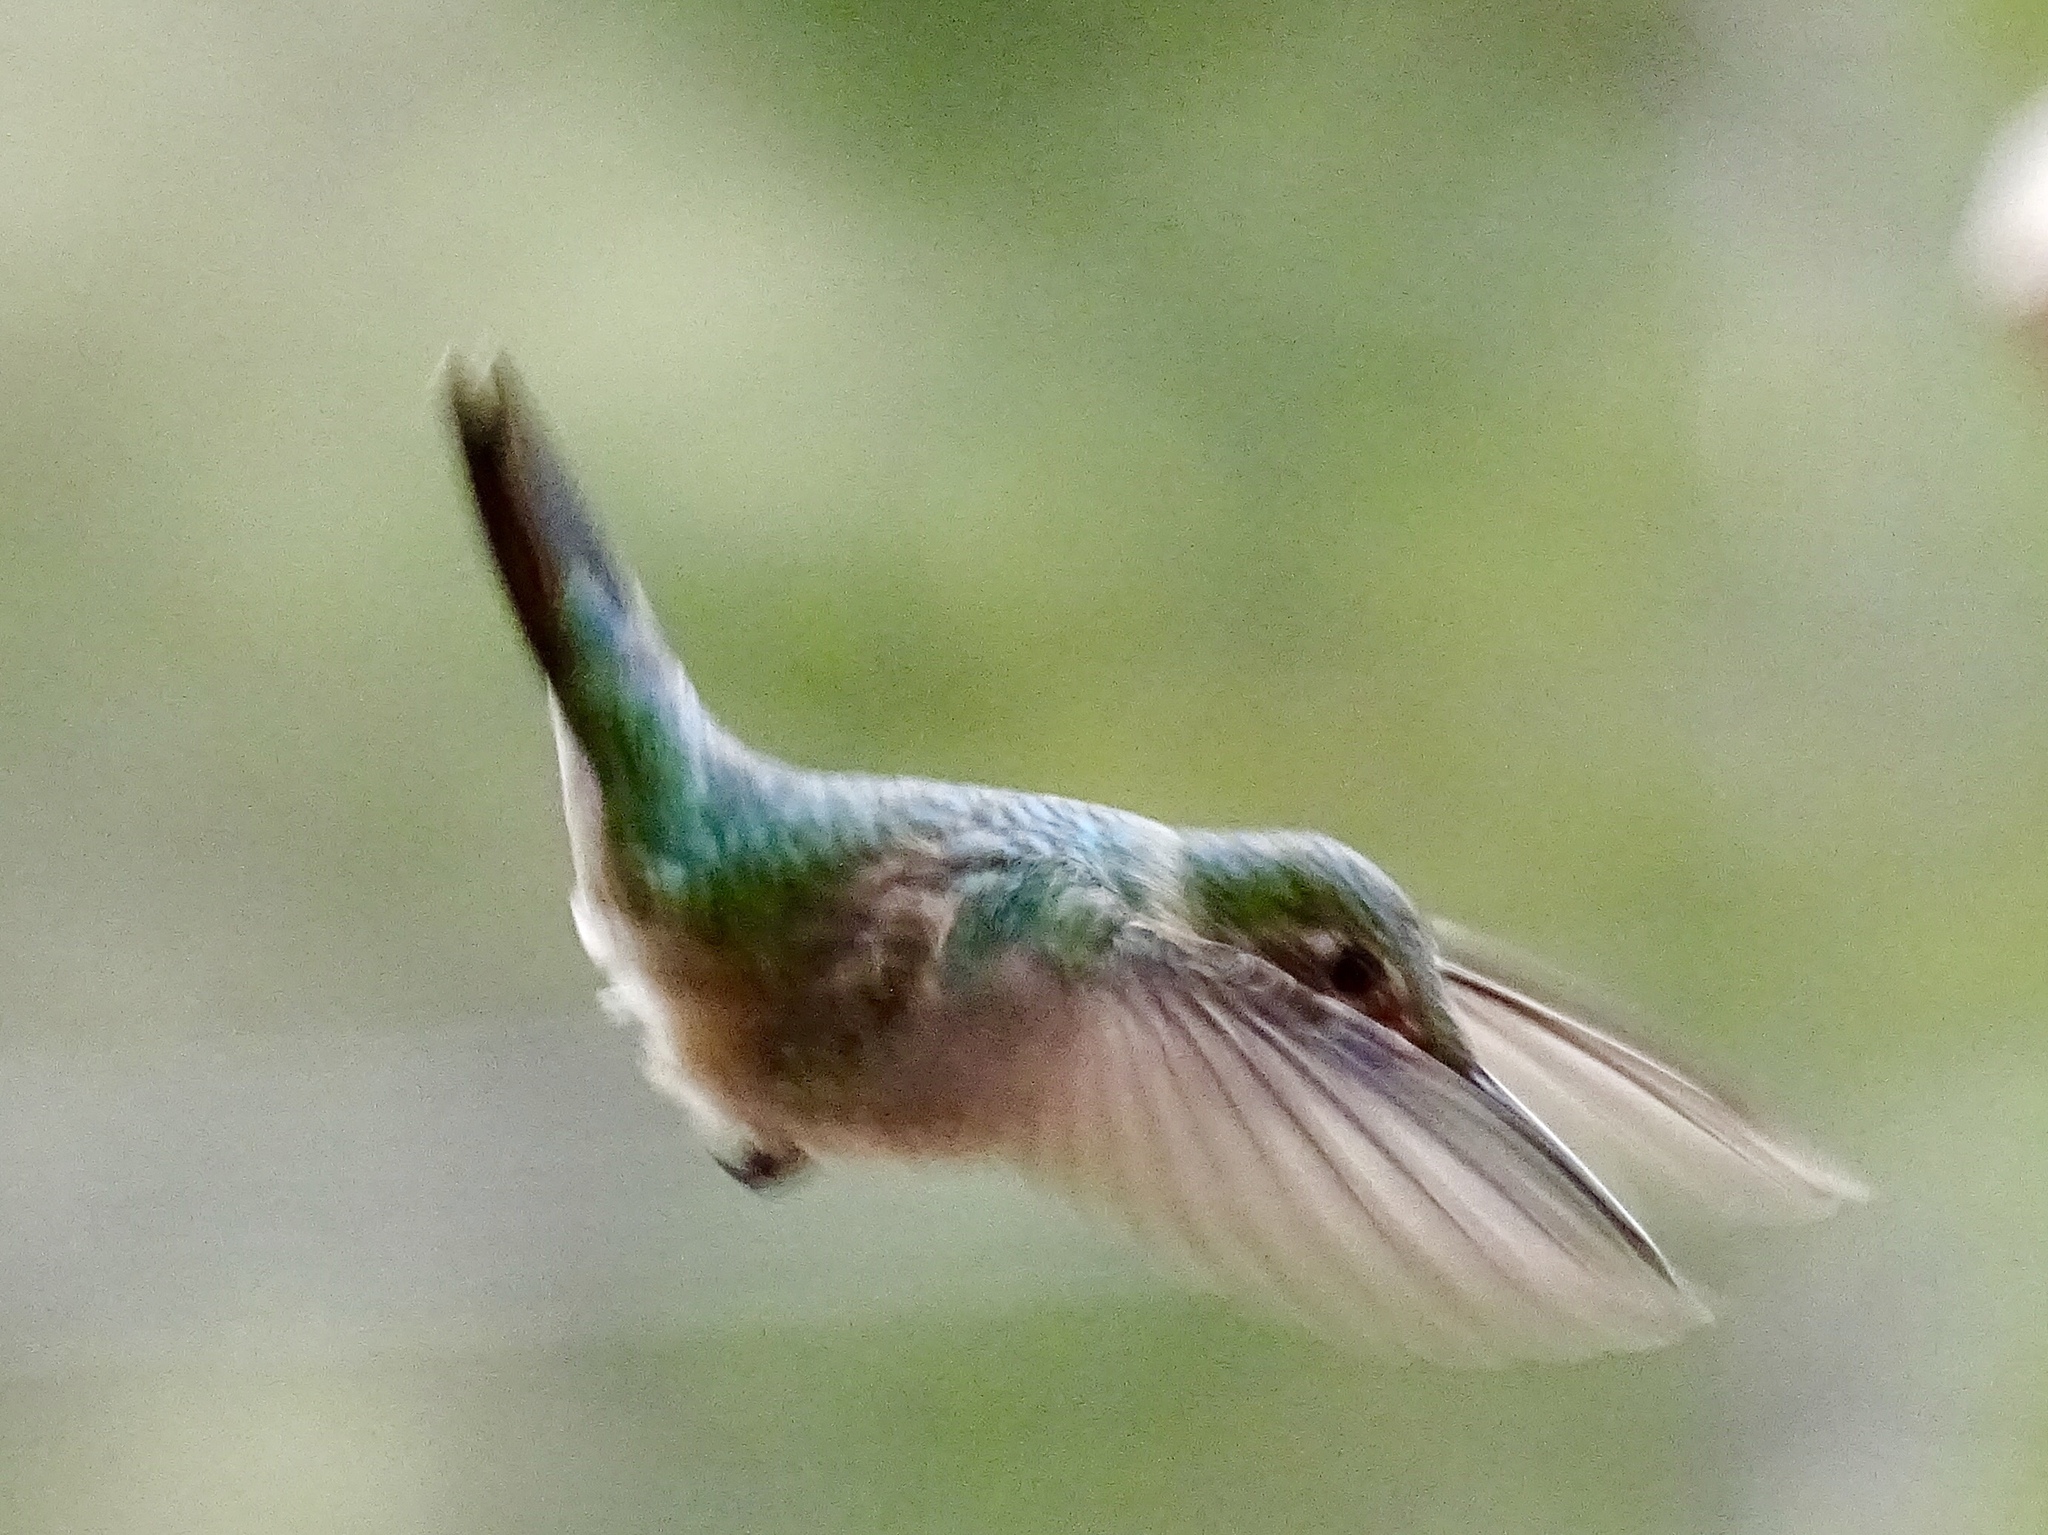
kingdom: Animalia
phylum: Chordata
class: Aves
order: Apodiformes
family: Trochilidae
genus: Selasphorus
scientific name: Selasphorus platycercus
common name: Broad-tailed hummingbird
